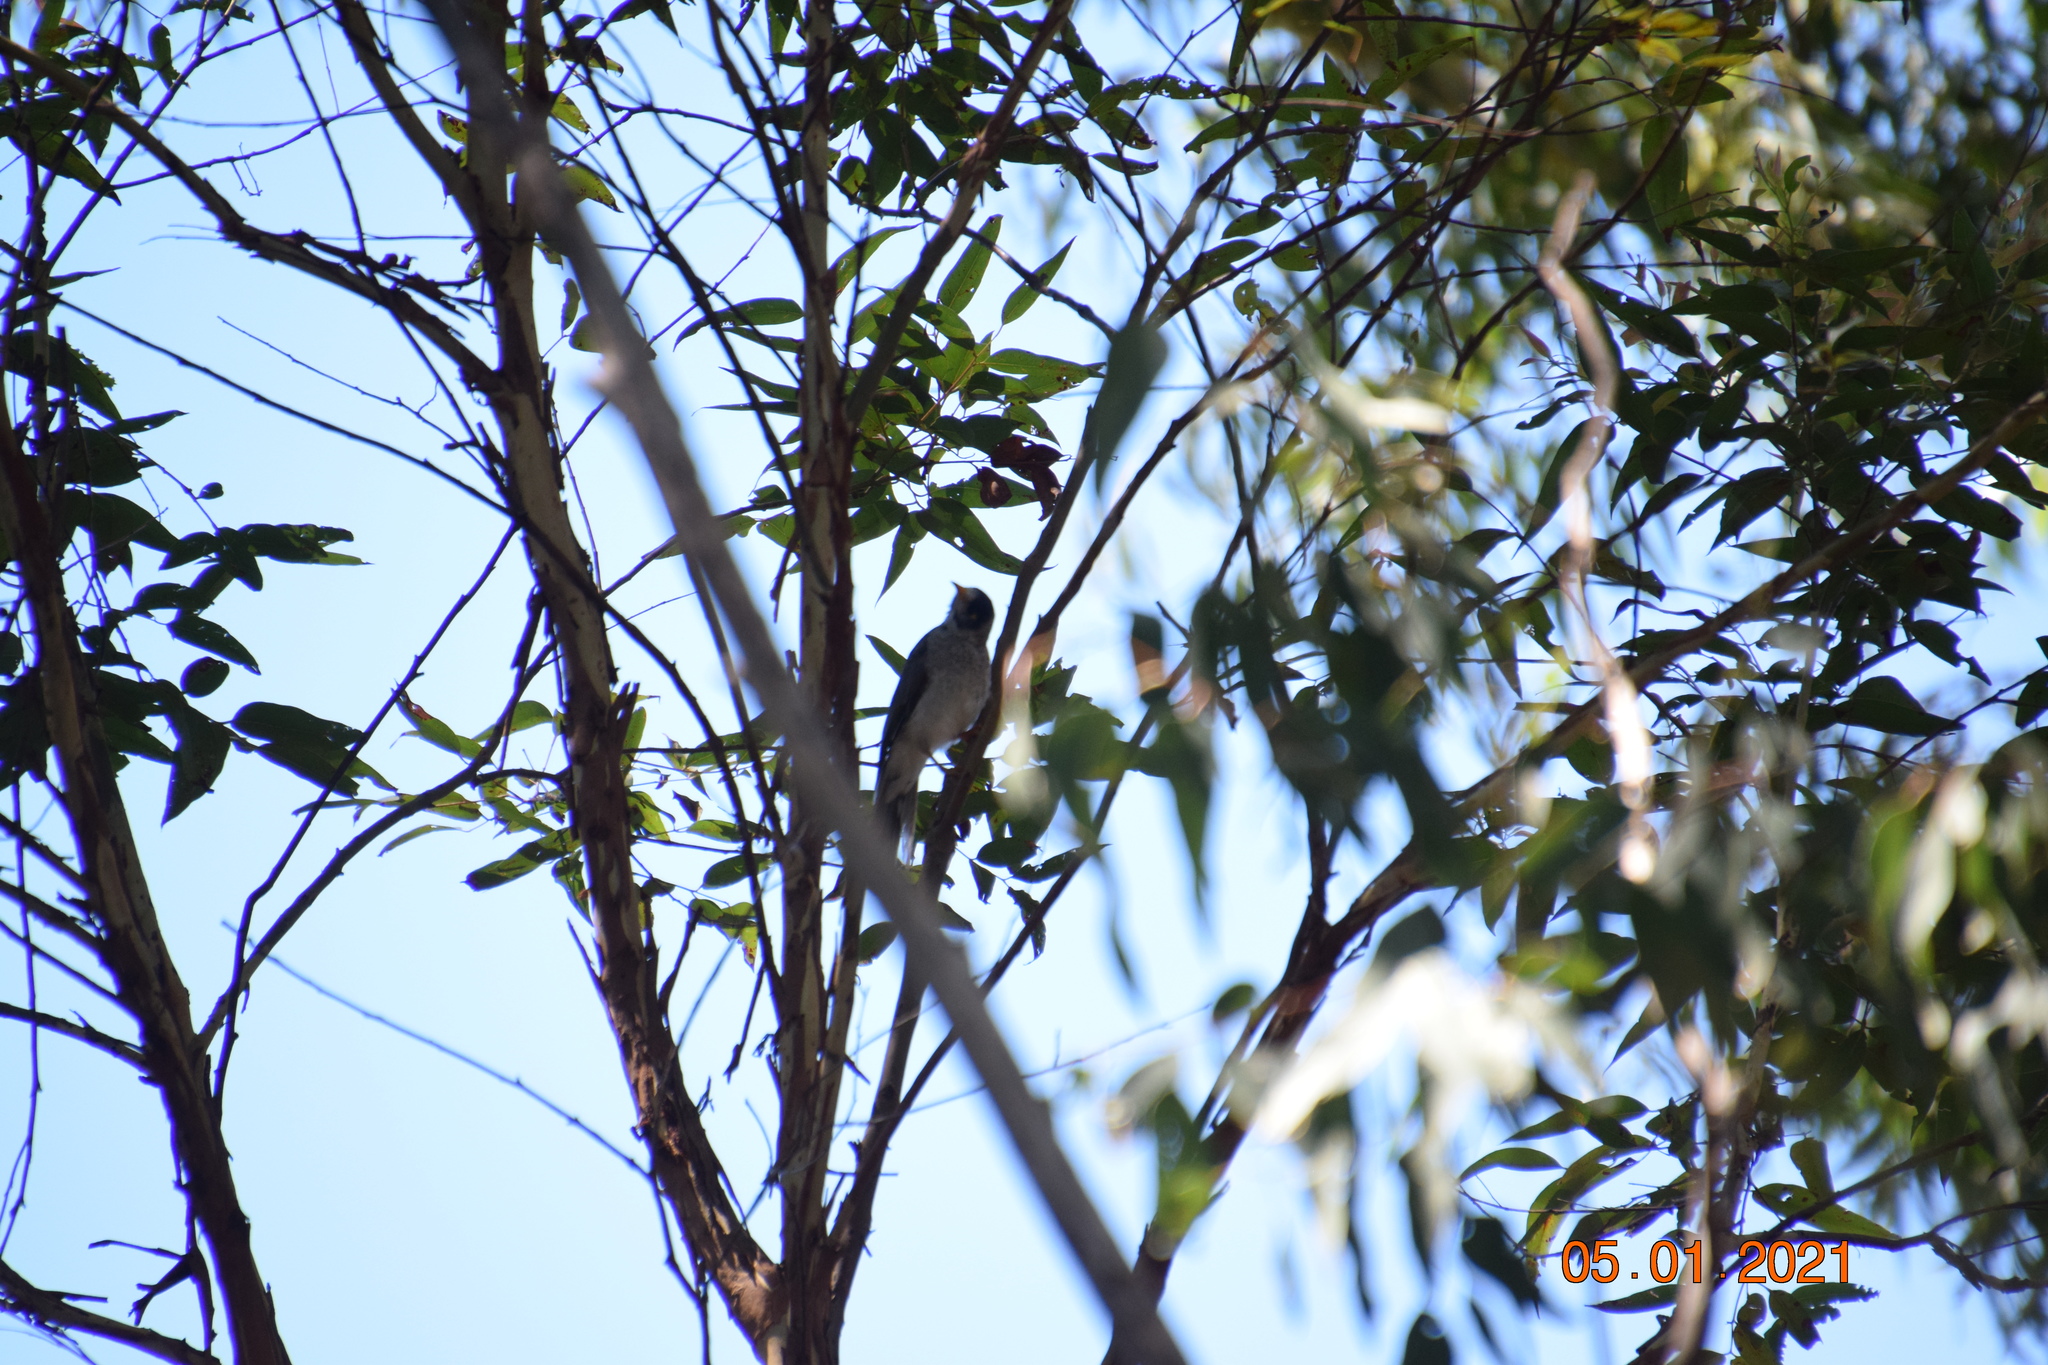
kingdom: Animalia
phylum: Chordata
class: Aves
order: Passeriformes
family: Meliphagidae
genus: Manorina
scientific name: Manorina melanocephala
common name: Noisy miner
